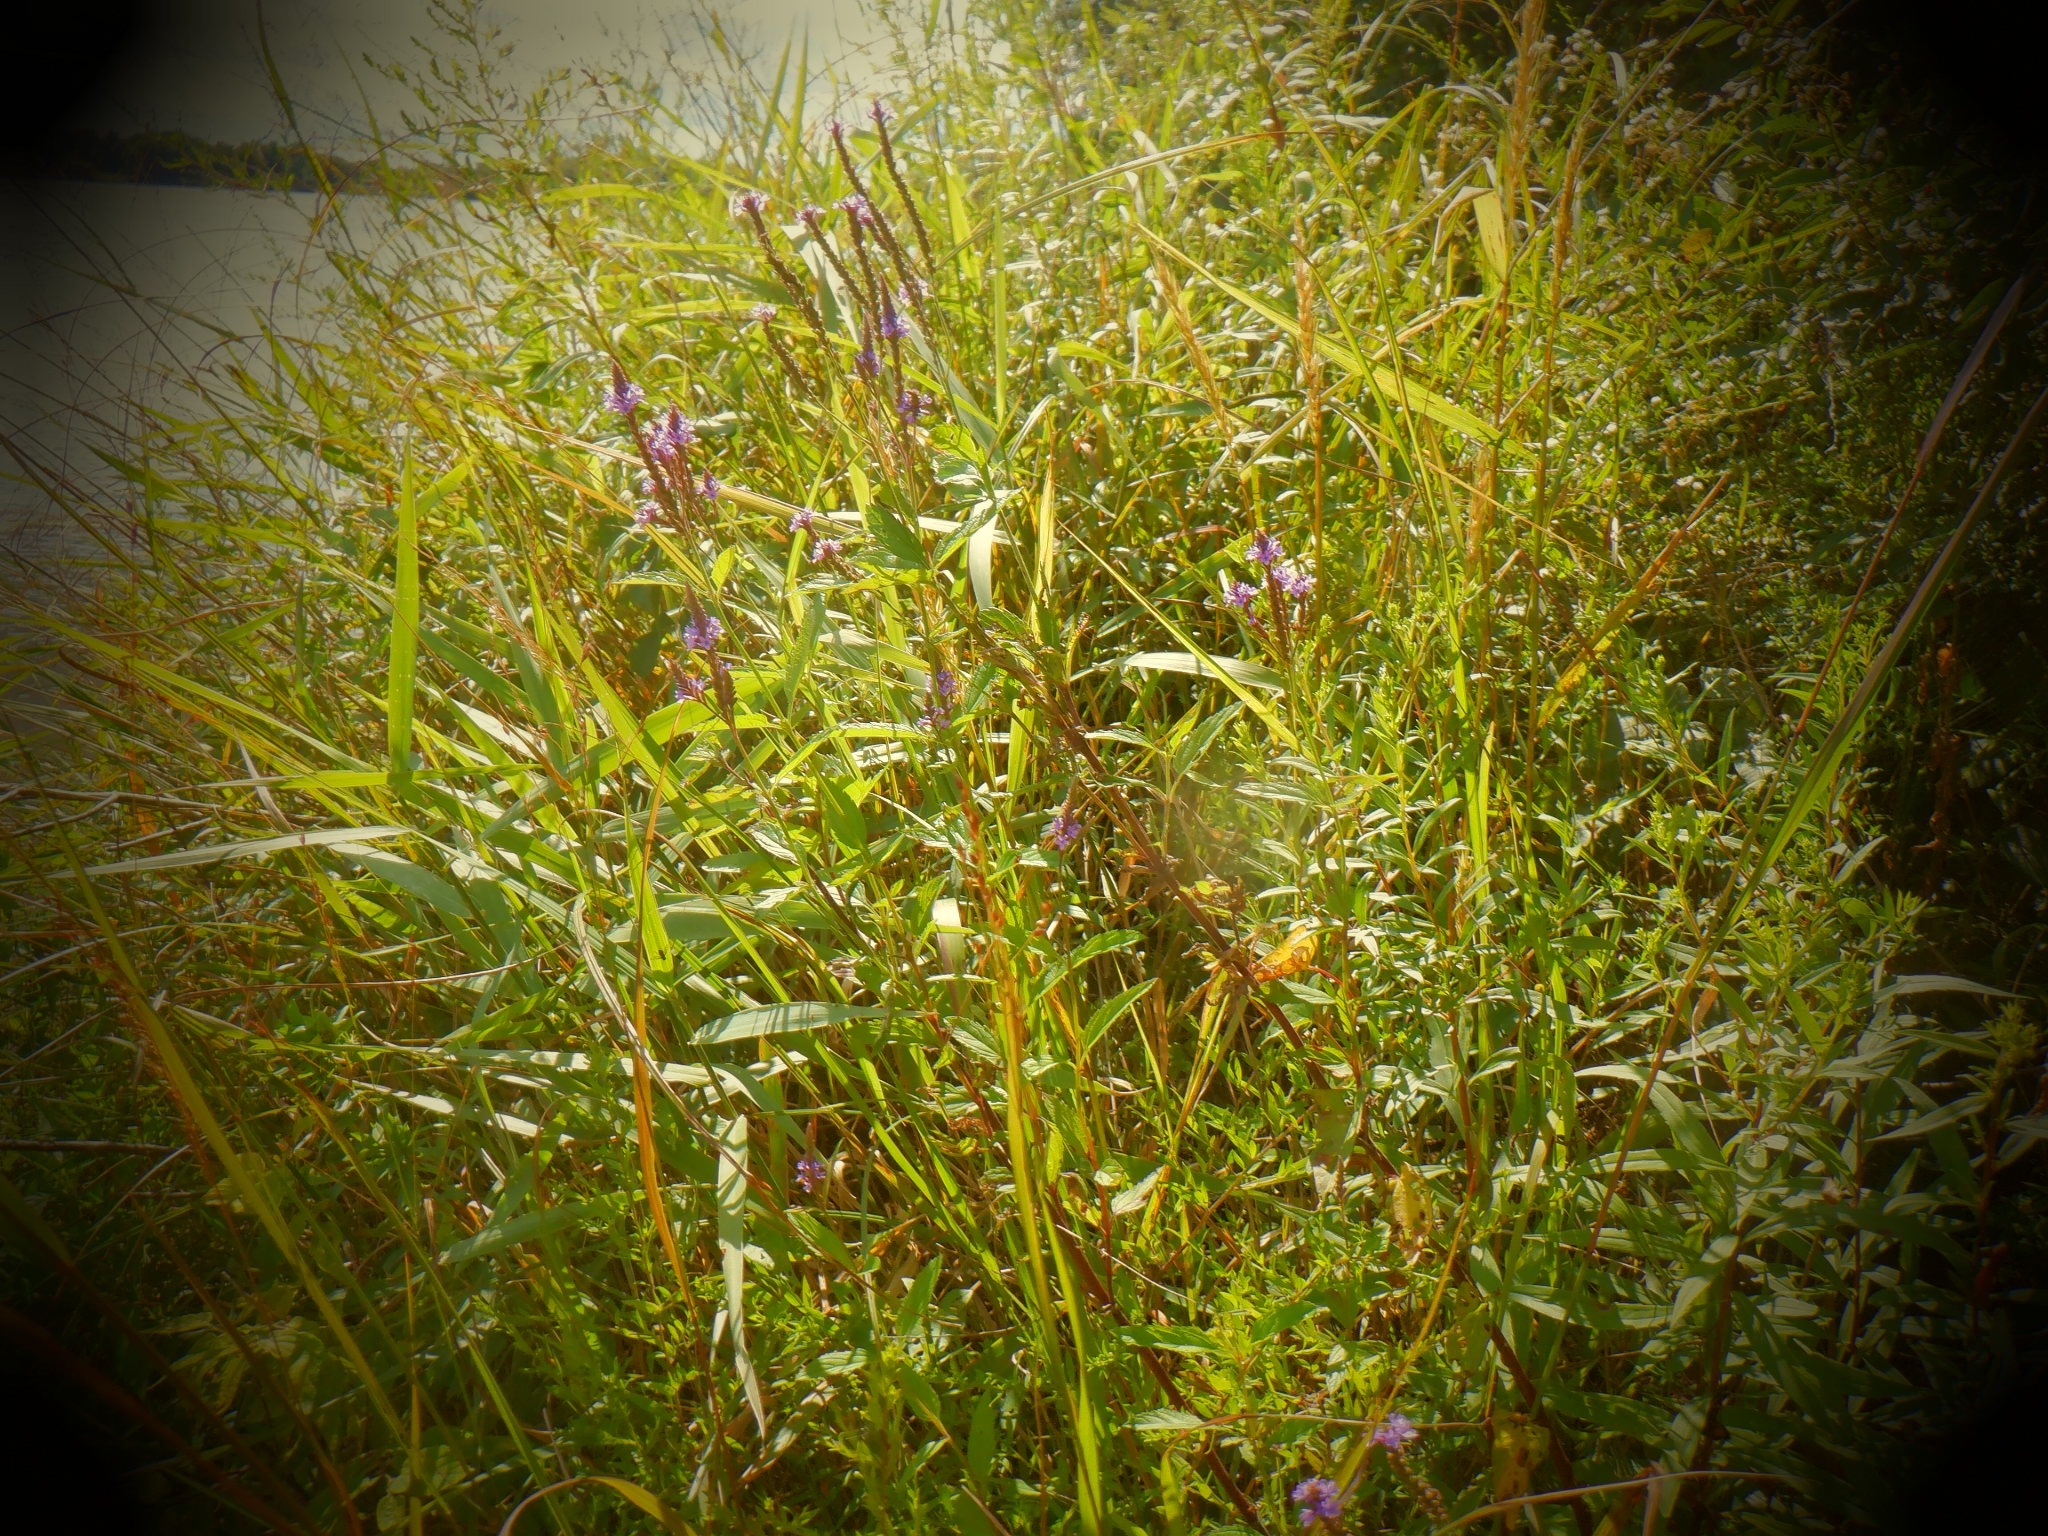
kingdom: Plantae
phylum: Tracheophyta
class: Magnoliopsida
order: Lamiales
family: Verbenaceae
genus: Verbena
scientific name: Verbena hastata
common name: American blue vervain
